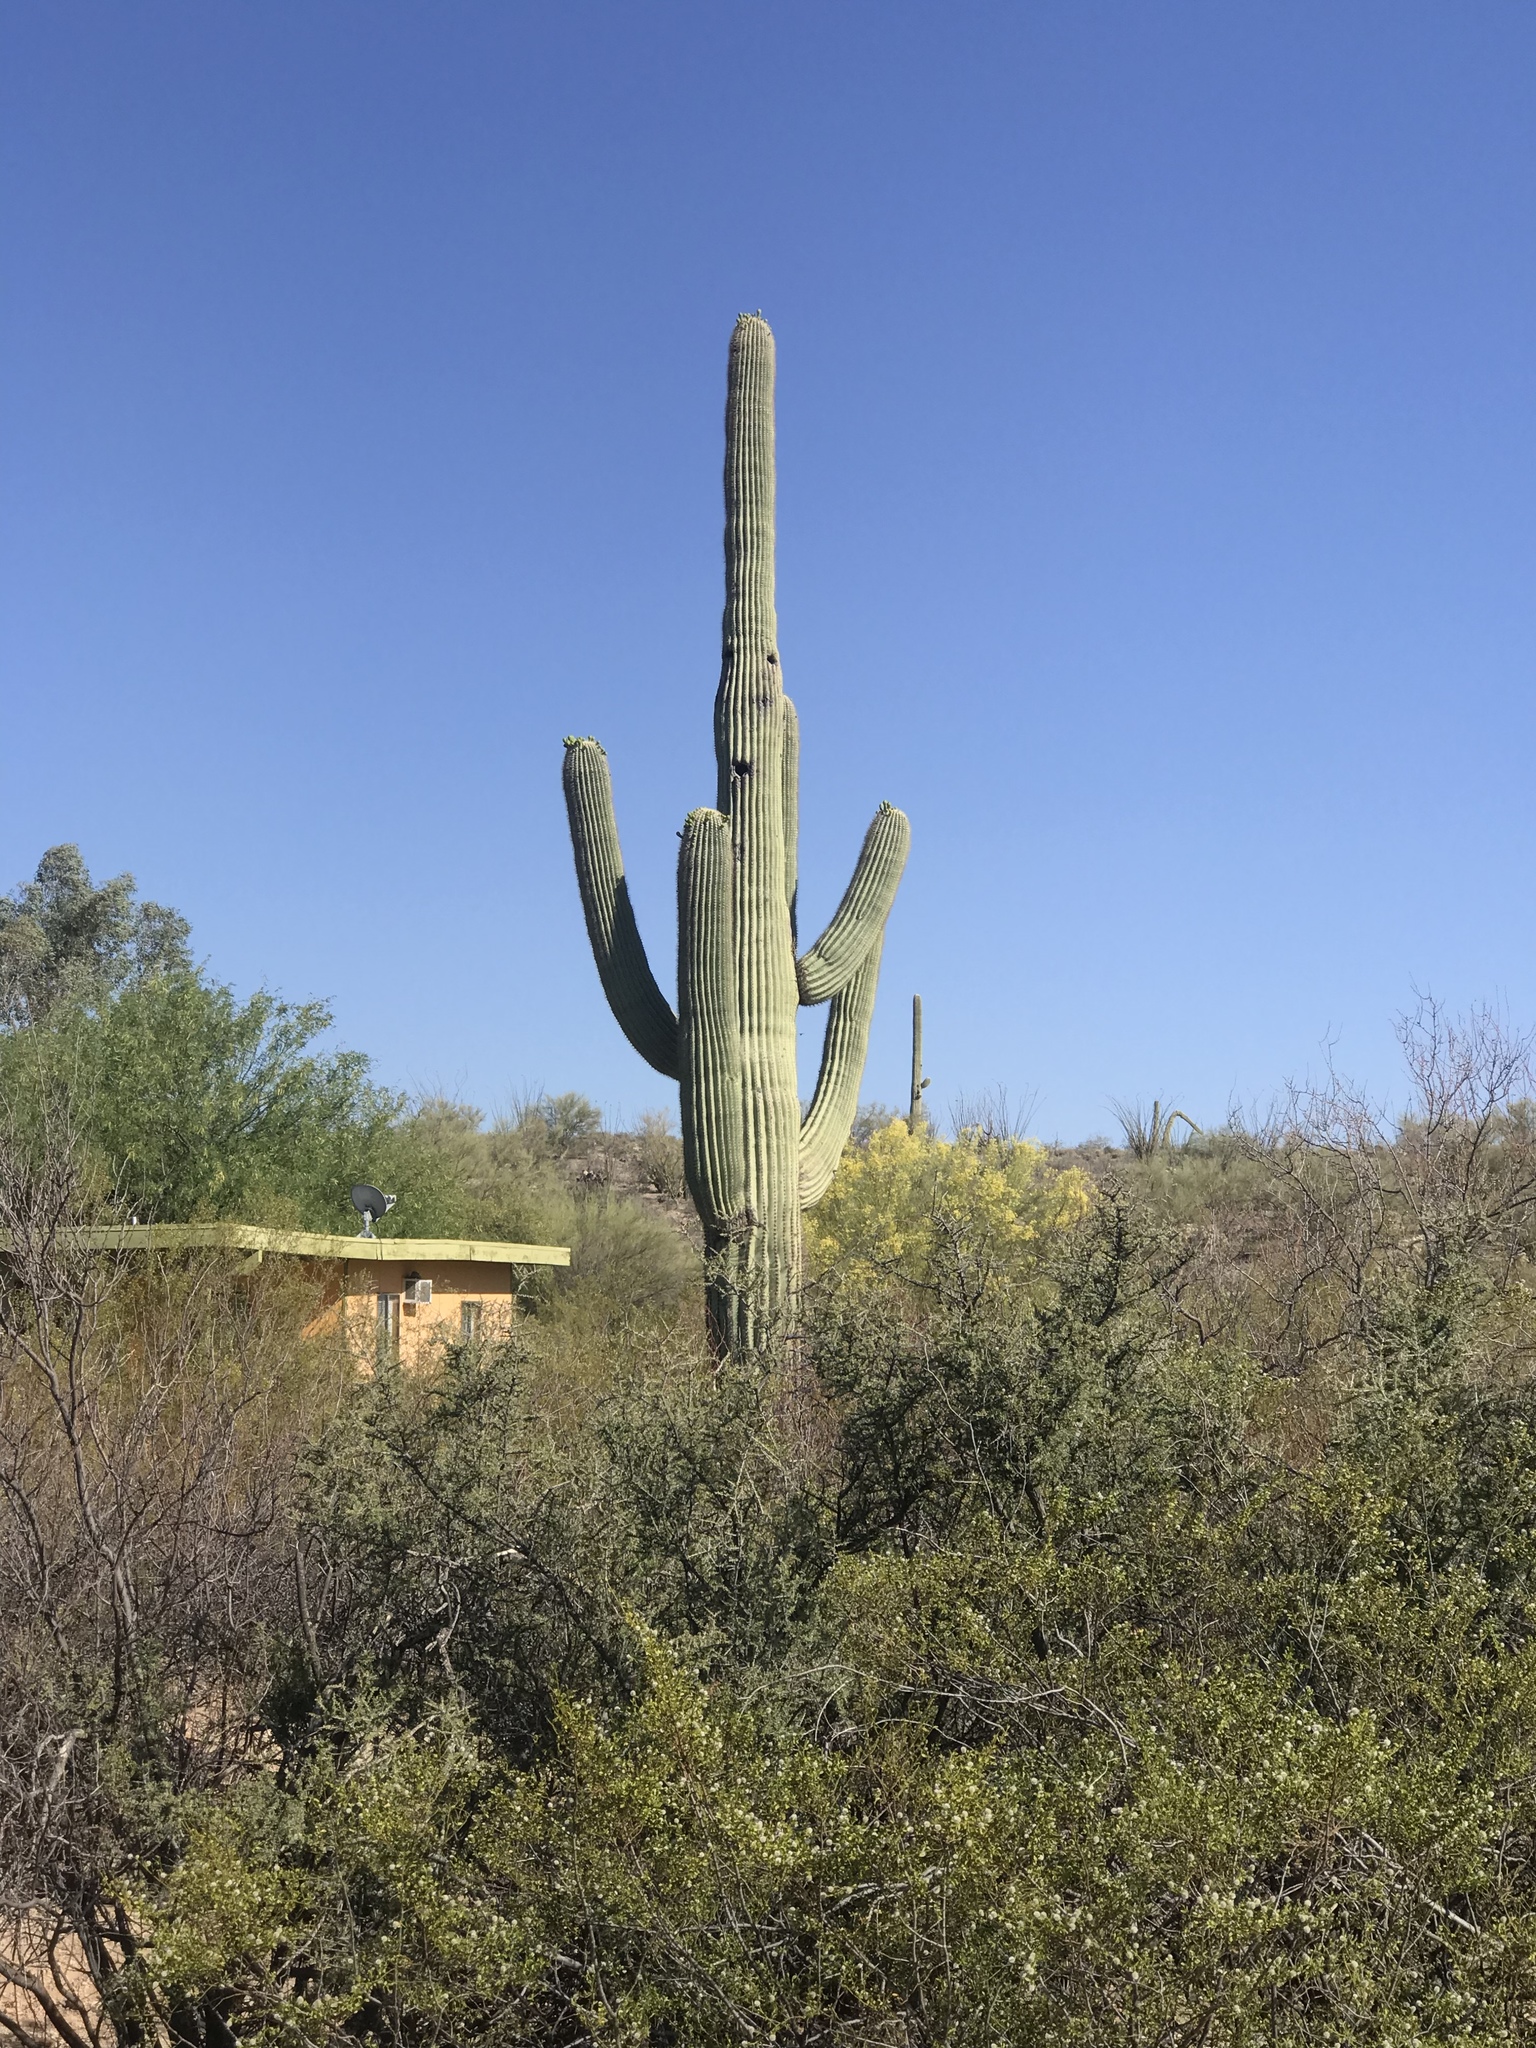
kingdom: Plantae
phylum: Tracheophyta
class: Magnoliopsida
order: Caryophyllales
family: Cactaceae
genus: Carnegiea
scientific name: Carnegiea gigantea
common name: Saguaro
